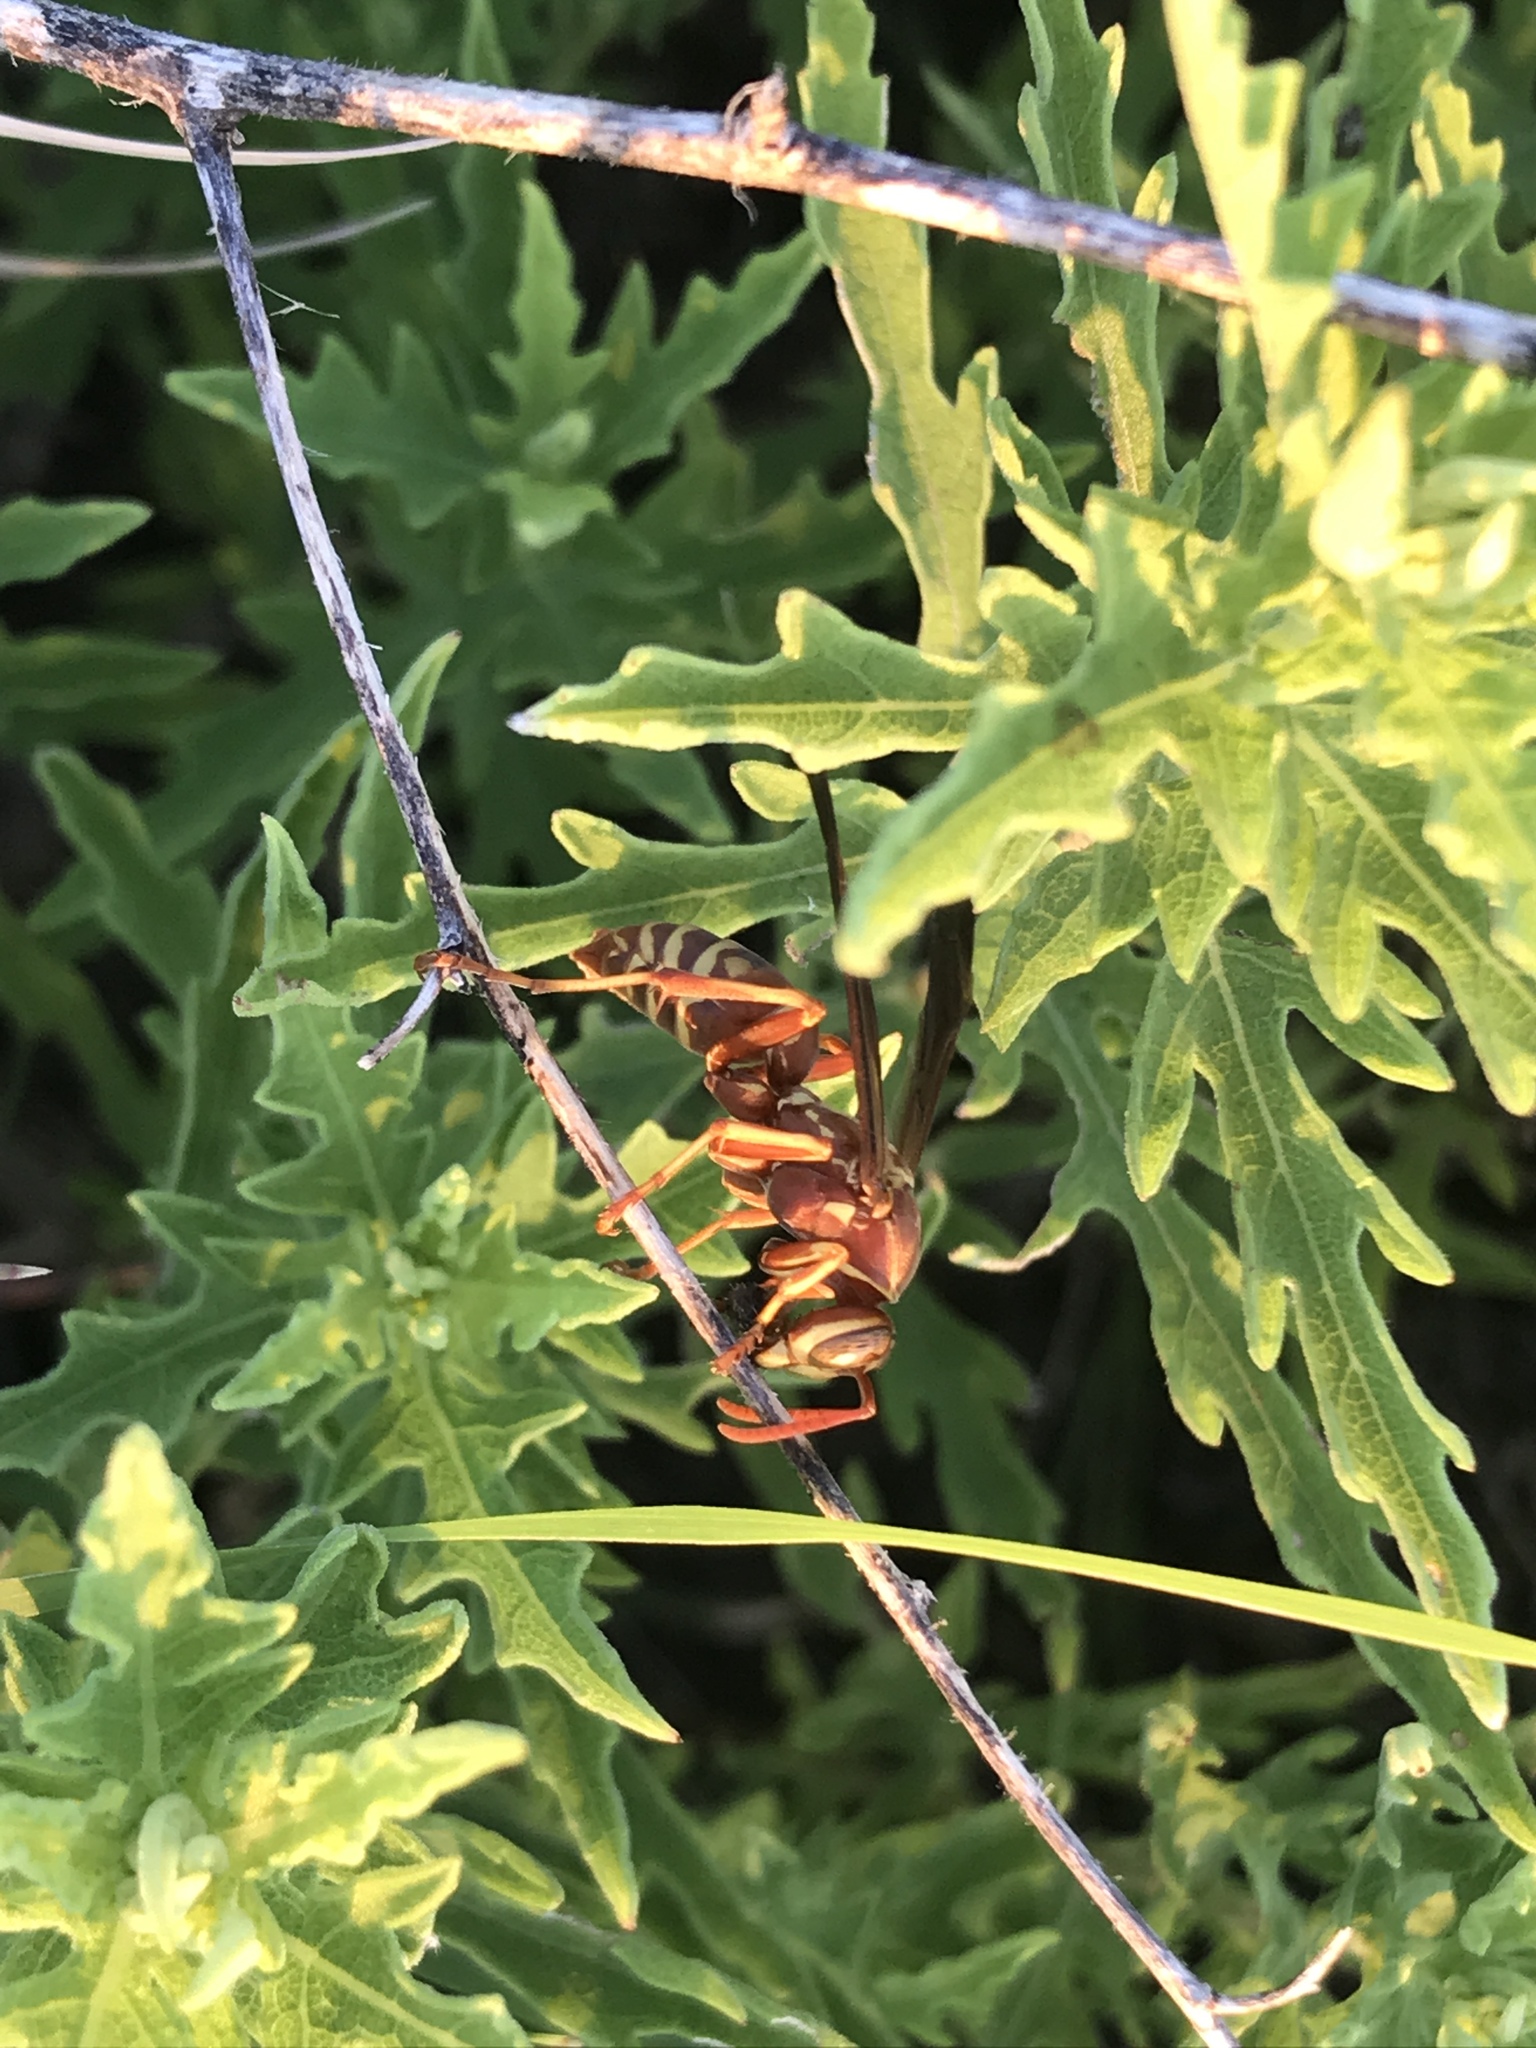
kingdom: Animalia
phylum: Arthropoda
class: Insecta
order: Hymenoptera
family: Eumenidae
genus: Polistes
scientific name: Polistes bellicosus
